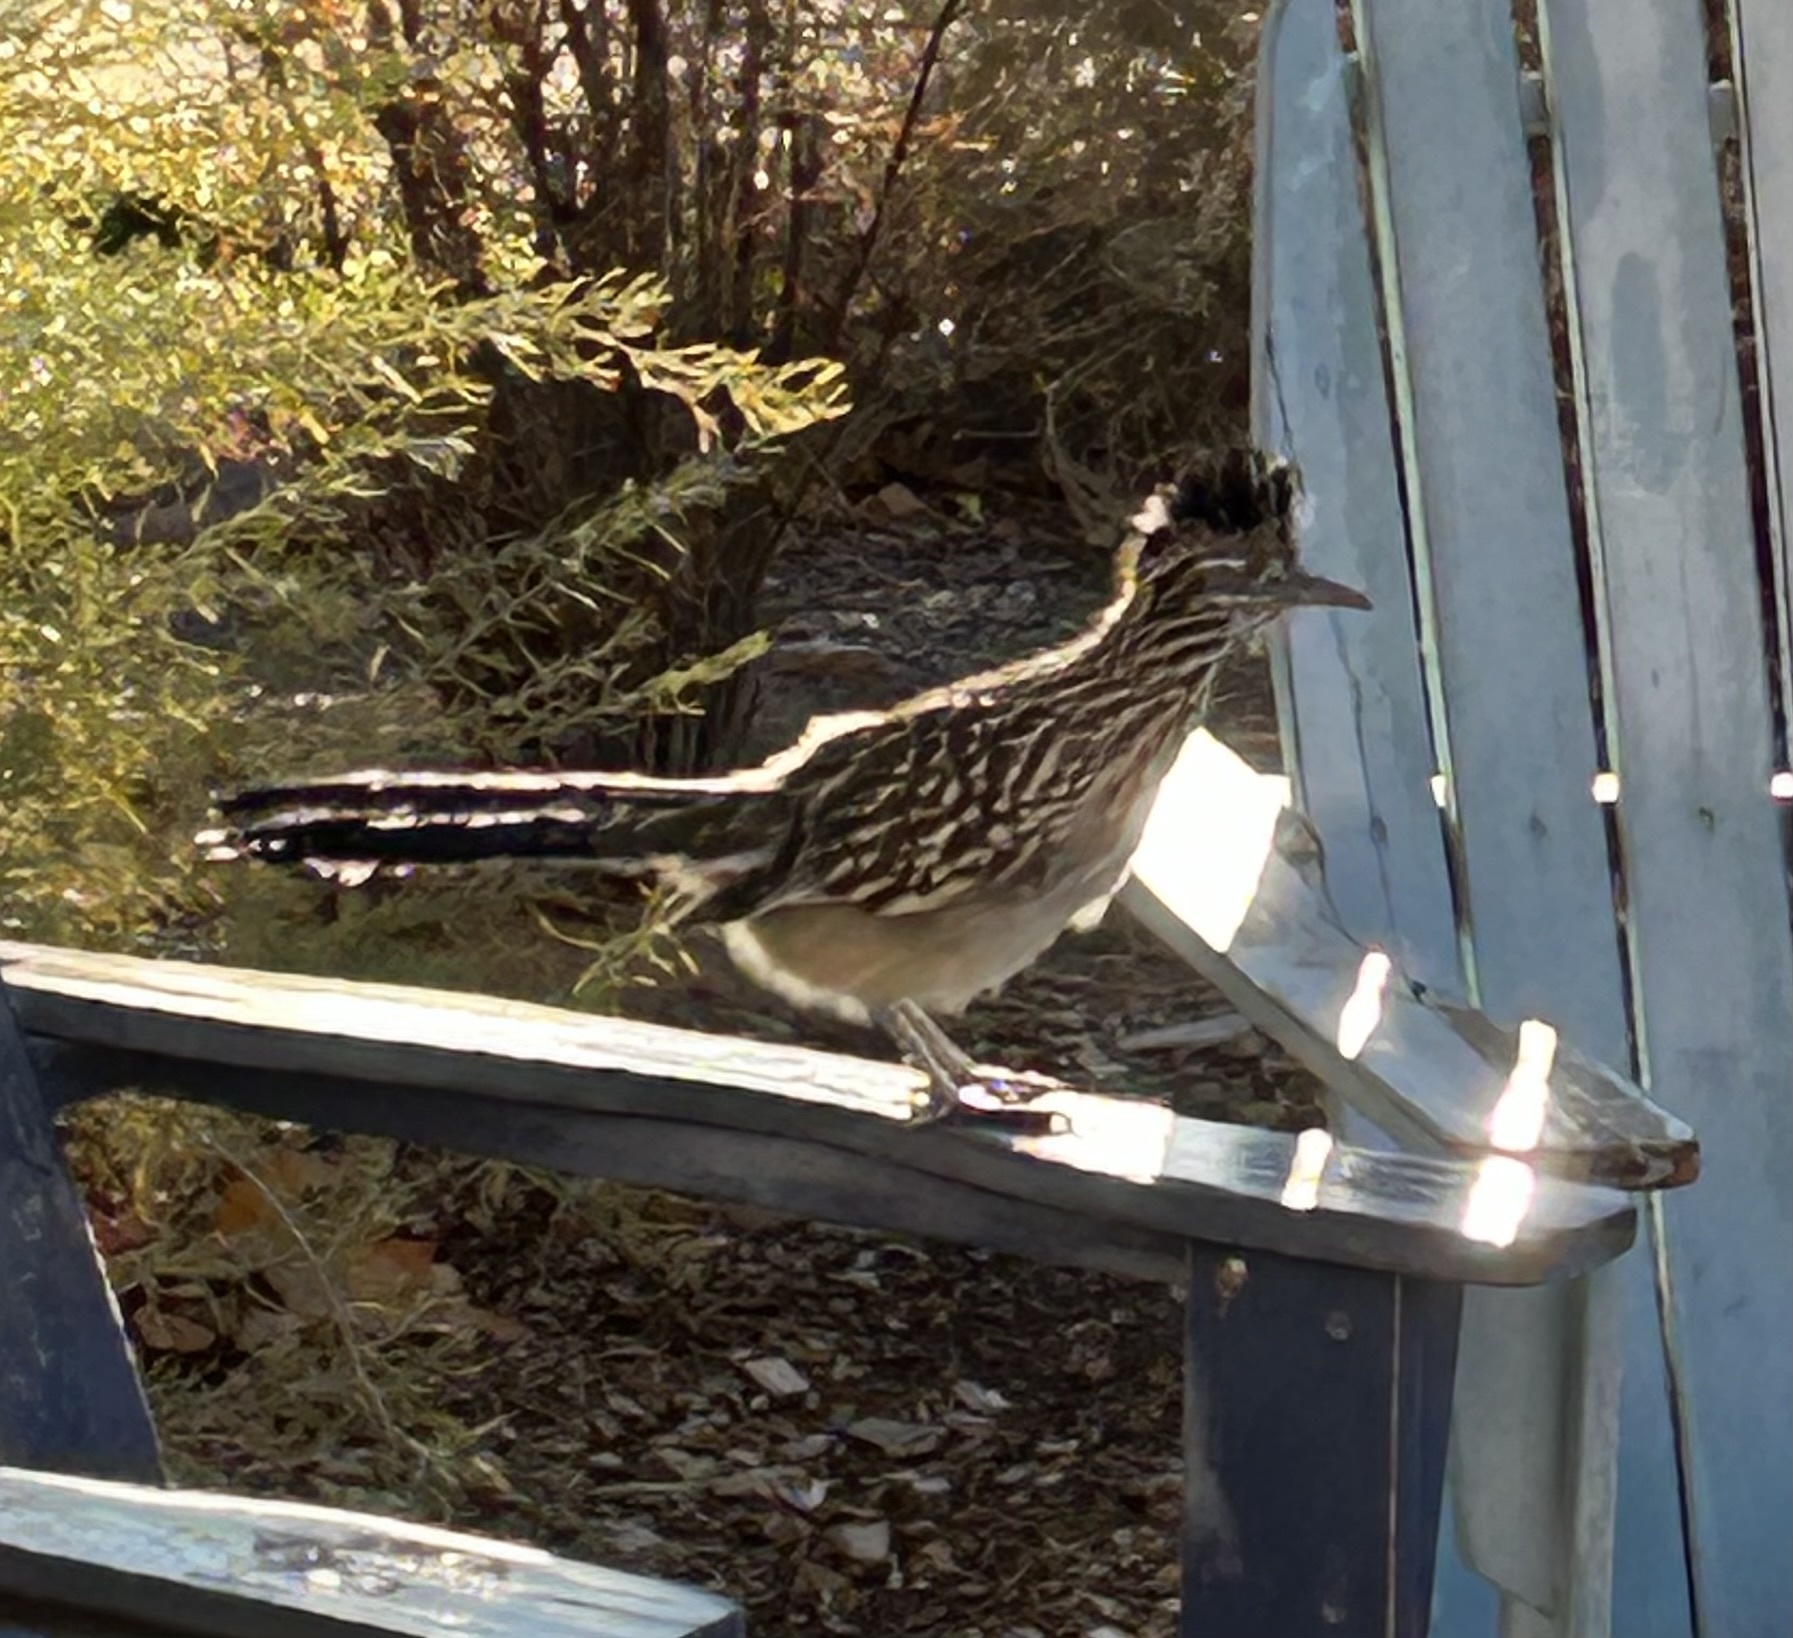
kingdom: Animalia
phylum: Chordata
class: Aves
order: Cuculiformes
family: Cuculidae
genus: Geococcyx
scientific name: Geococcyx californianus
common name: Greater roadrunner
